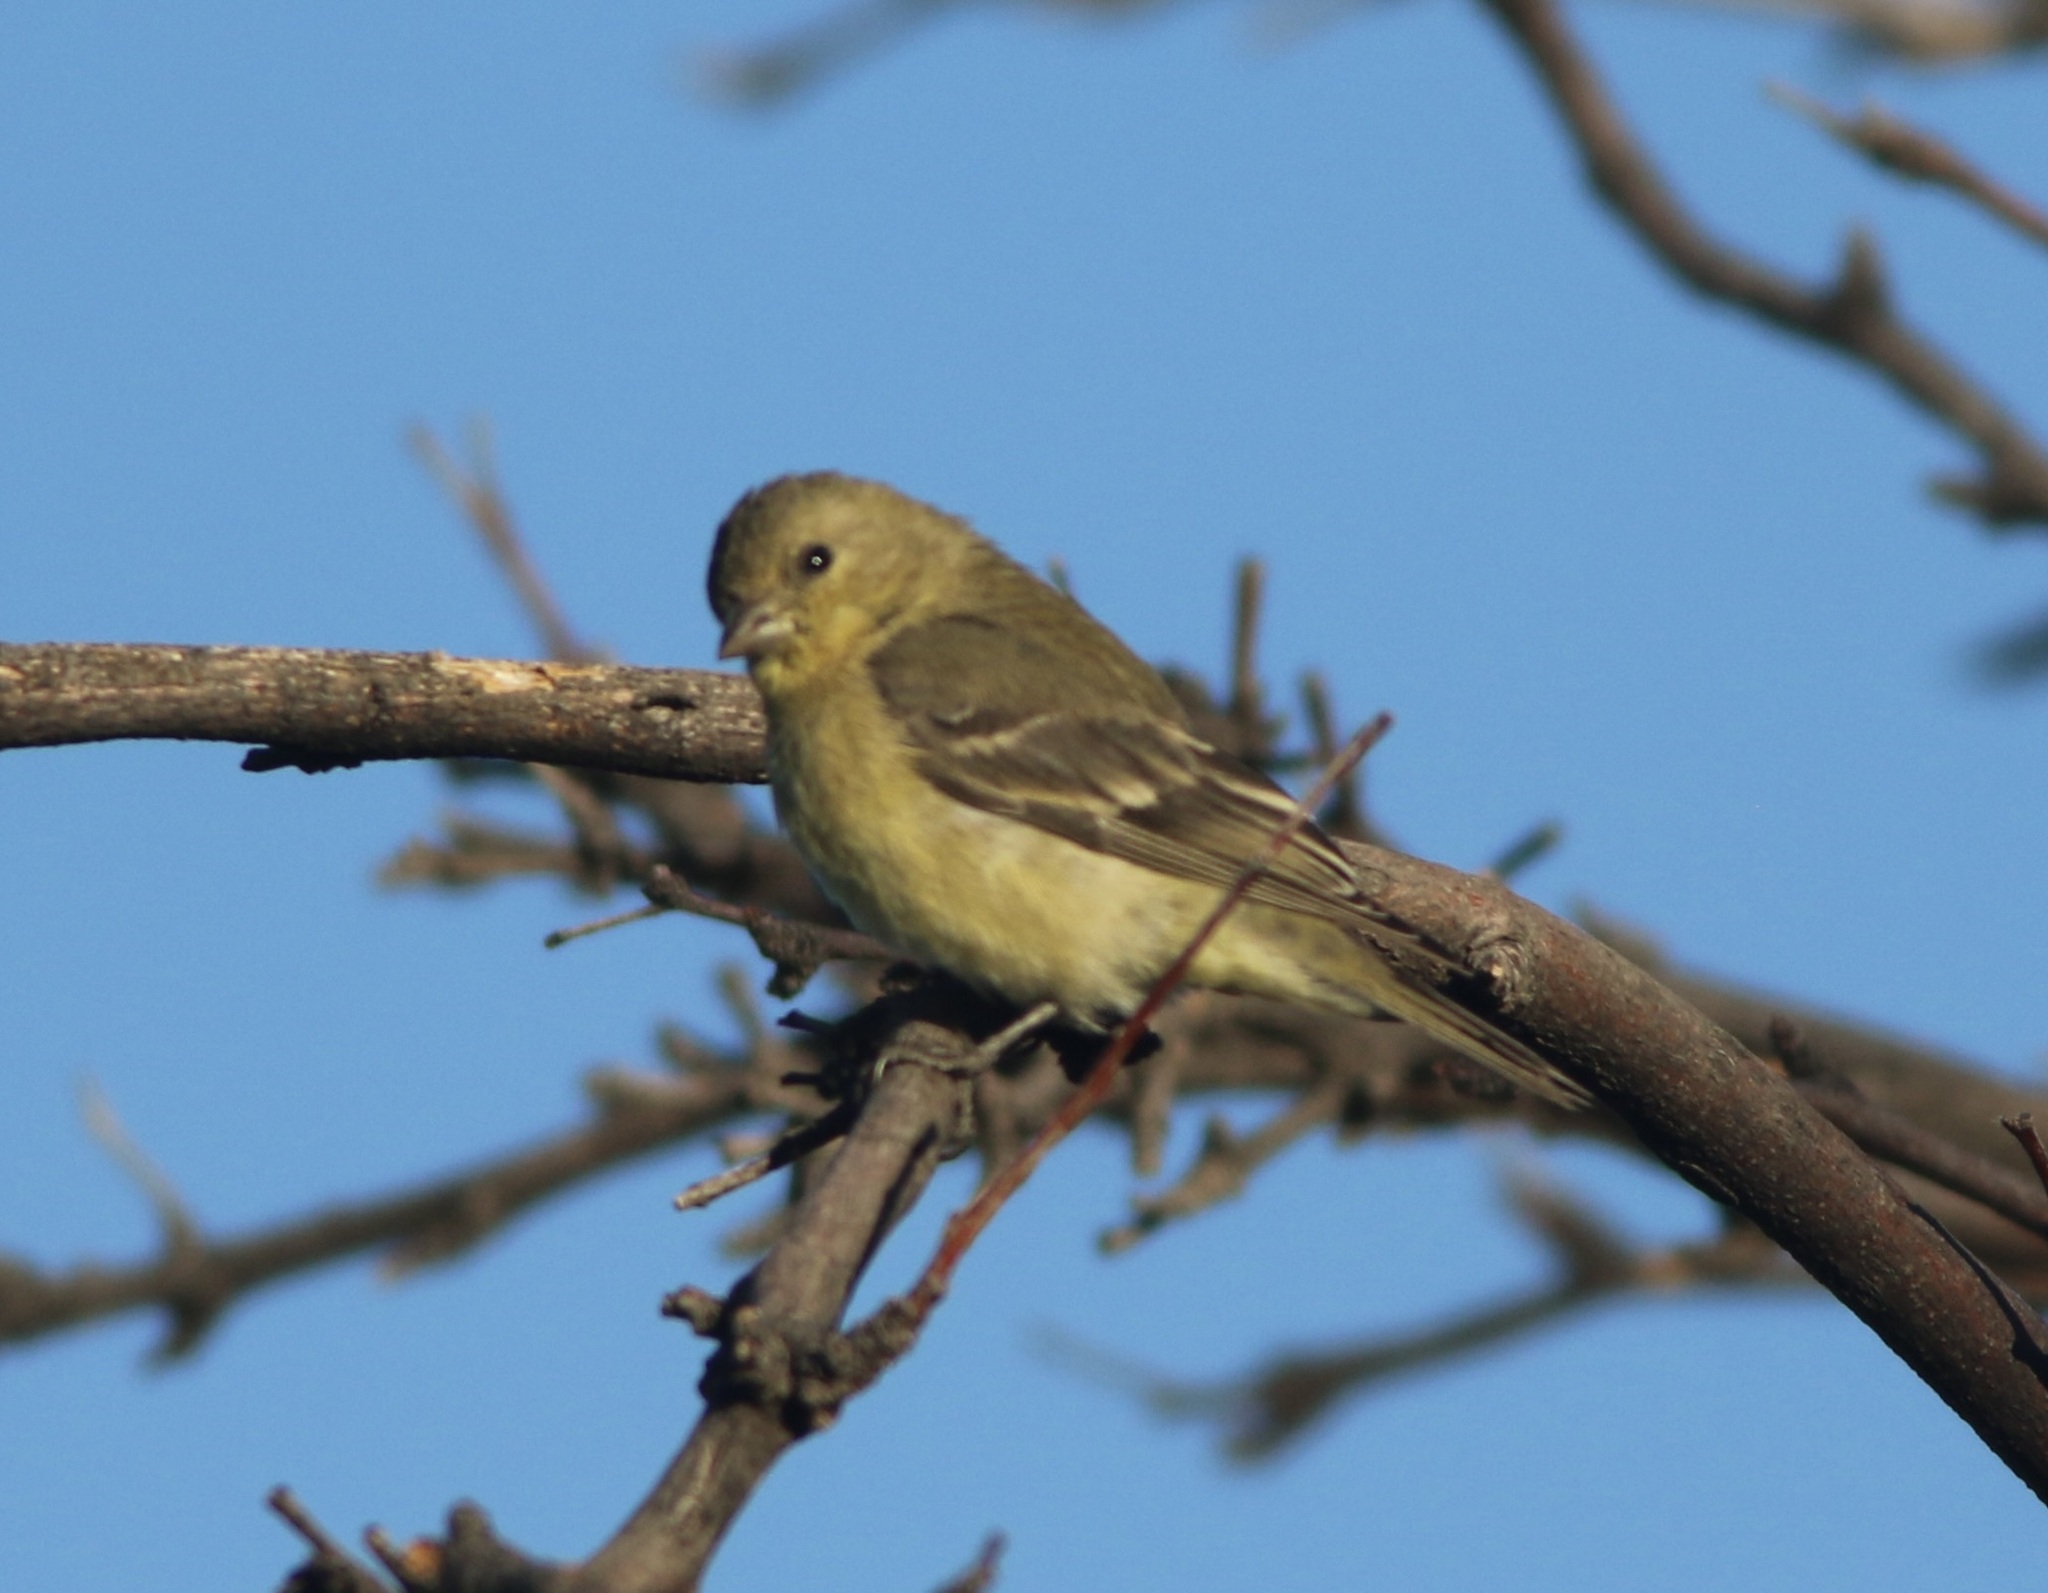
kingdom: Animalia
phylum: Chordata
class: Aves
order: Passeriformes
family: Fringillidae
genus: Spinus
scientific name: Spinus psaltria
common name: Lesser goldfinch
